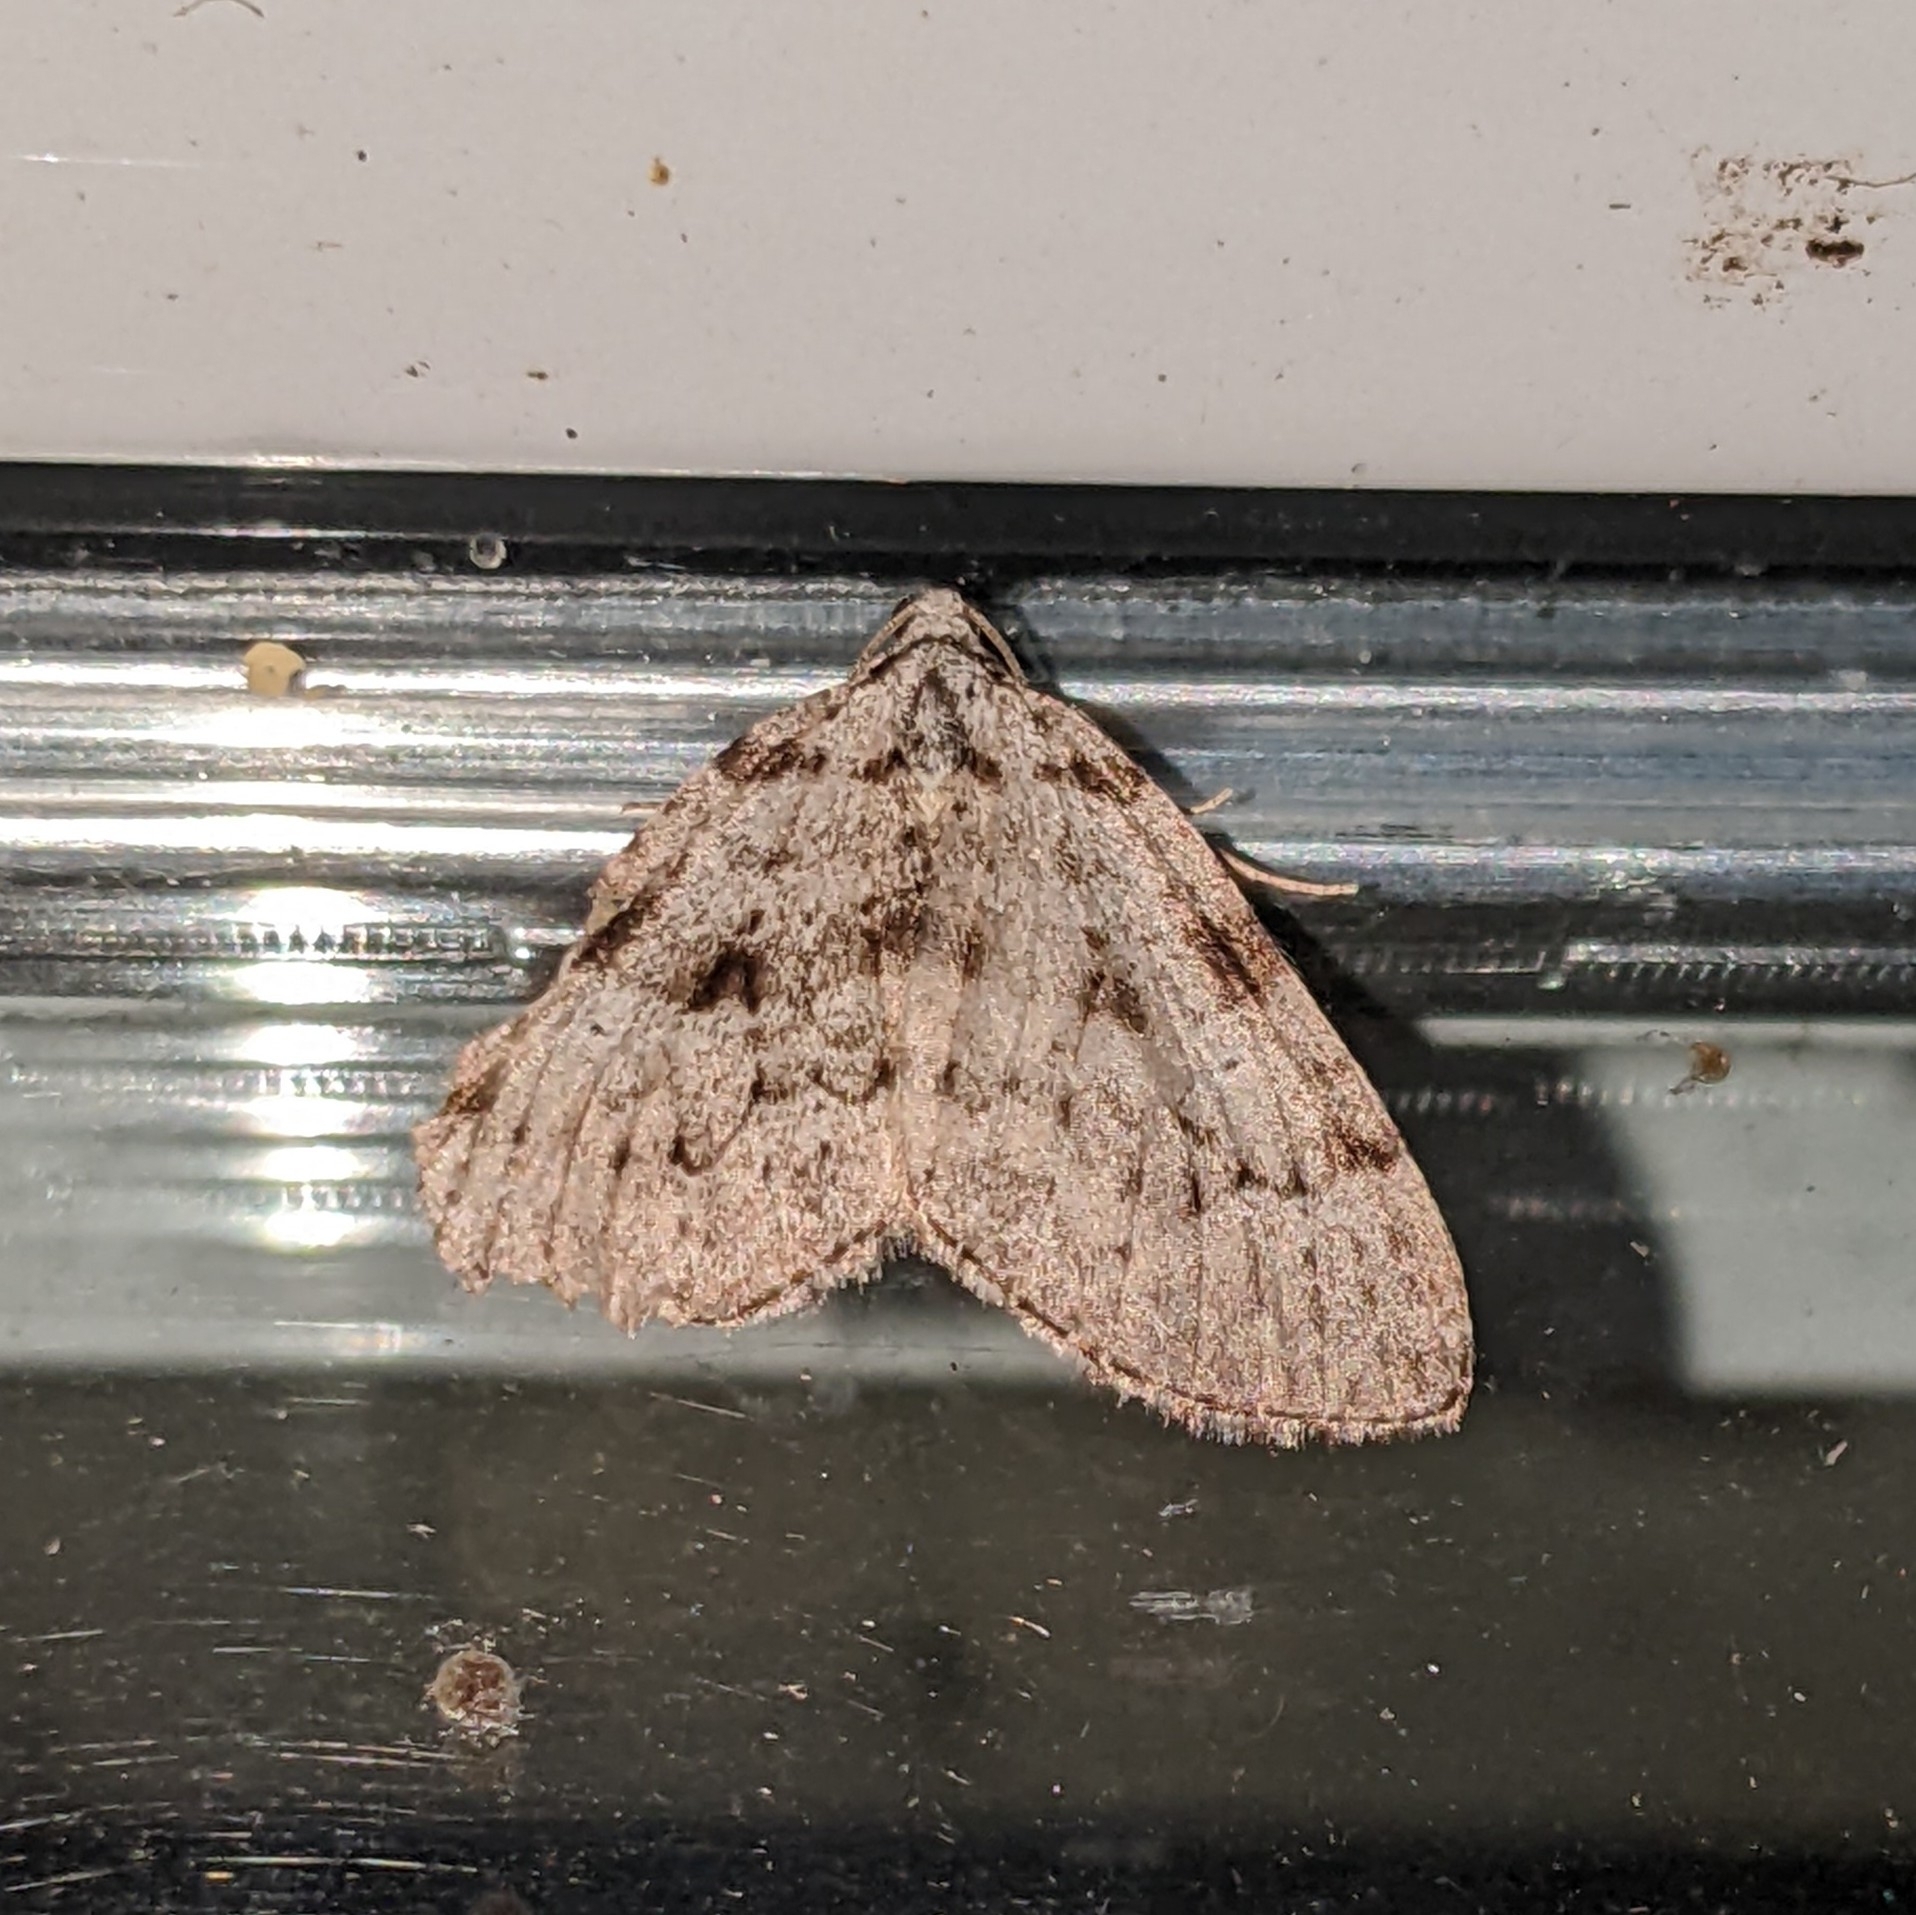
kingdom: Animalia
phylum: Arthropoda
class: Insecta
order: Lepidoptera
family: Geometridae
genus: Perizoma
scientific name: Perizoma curvilinea
